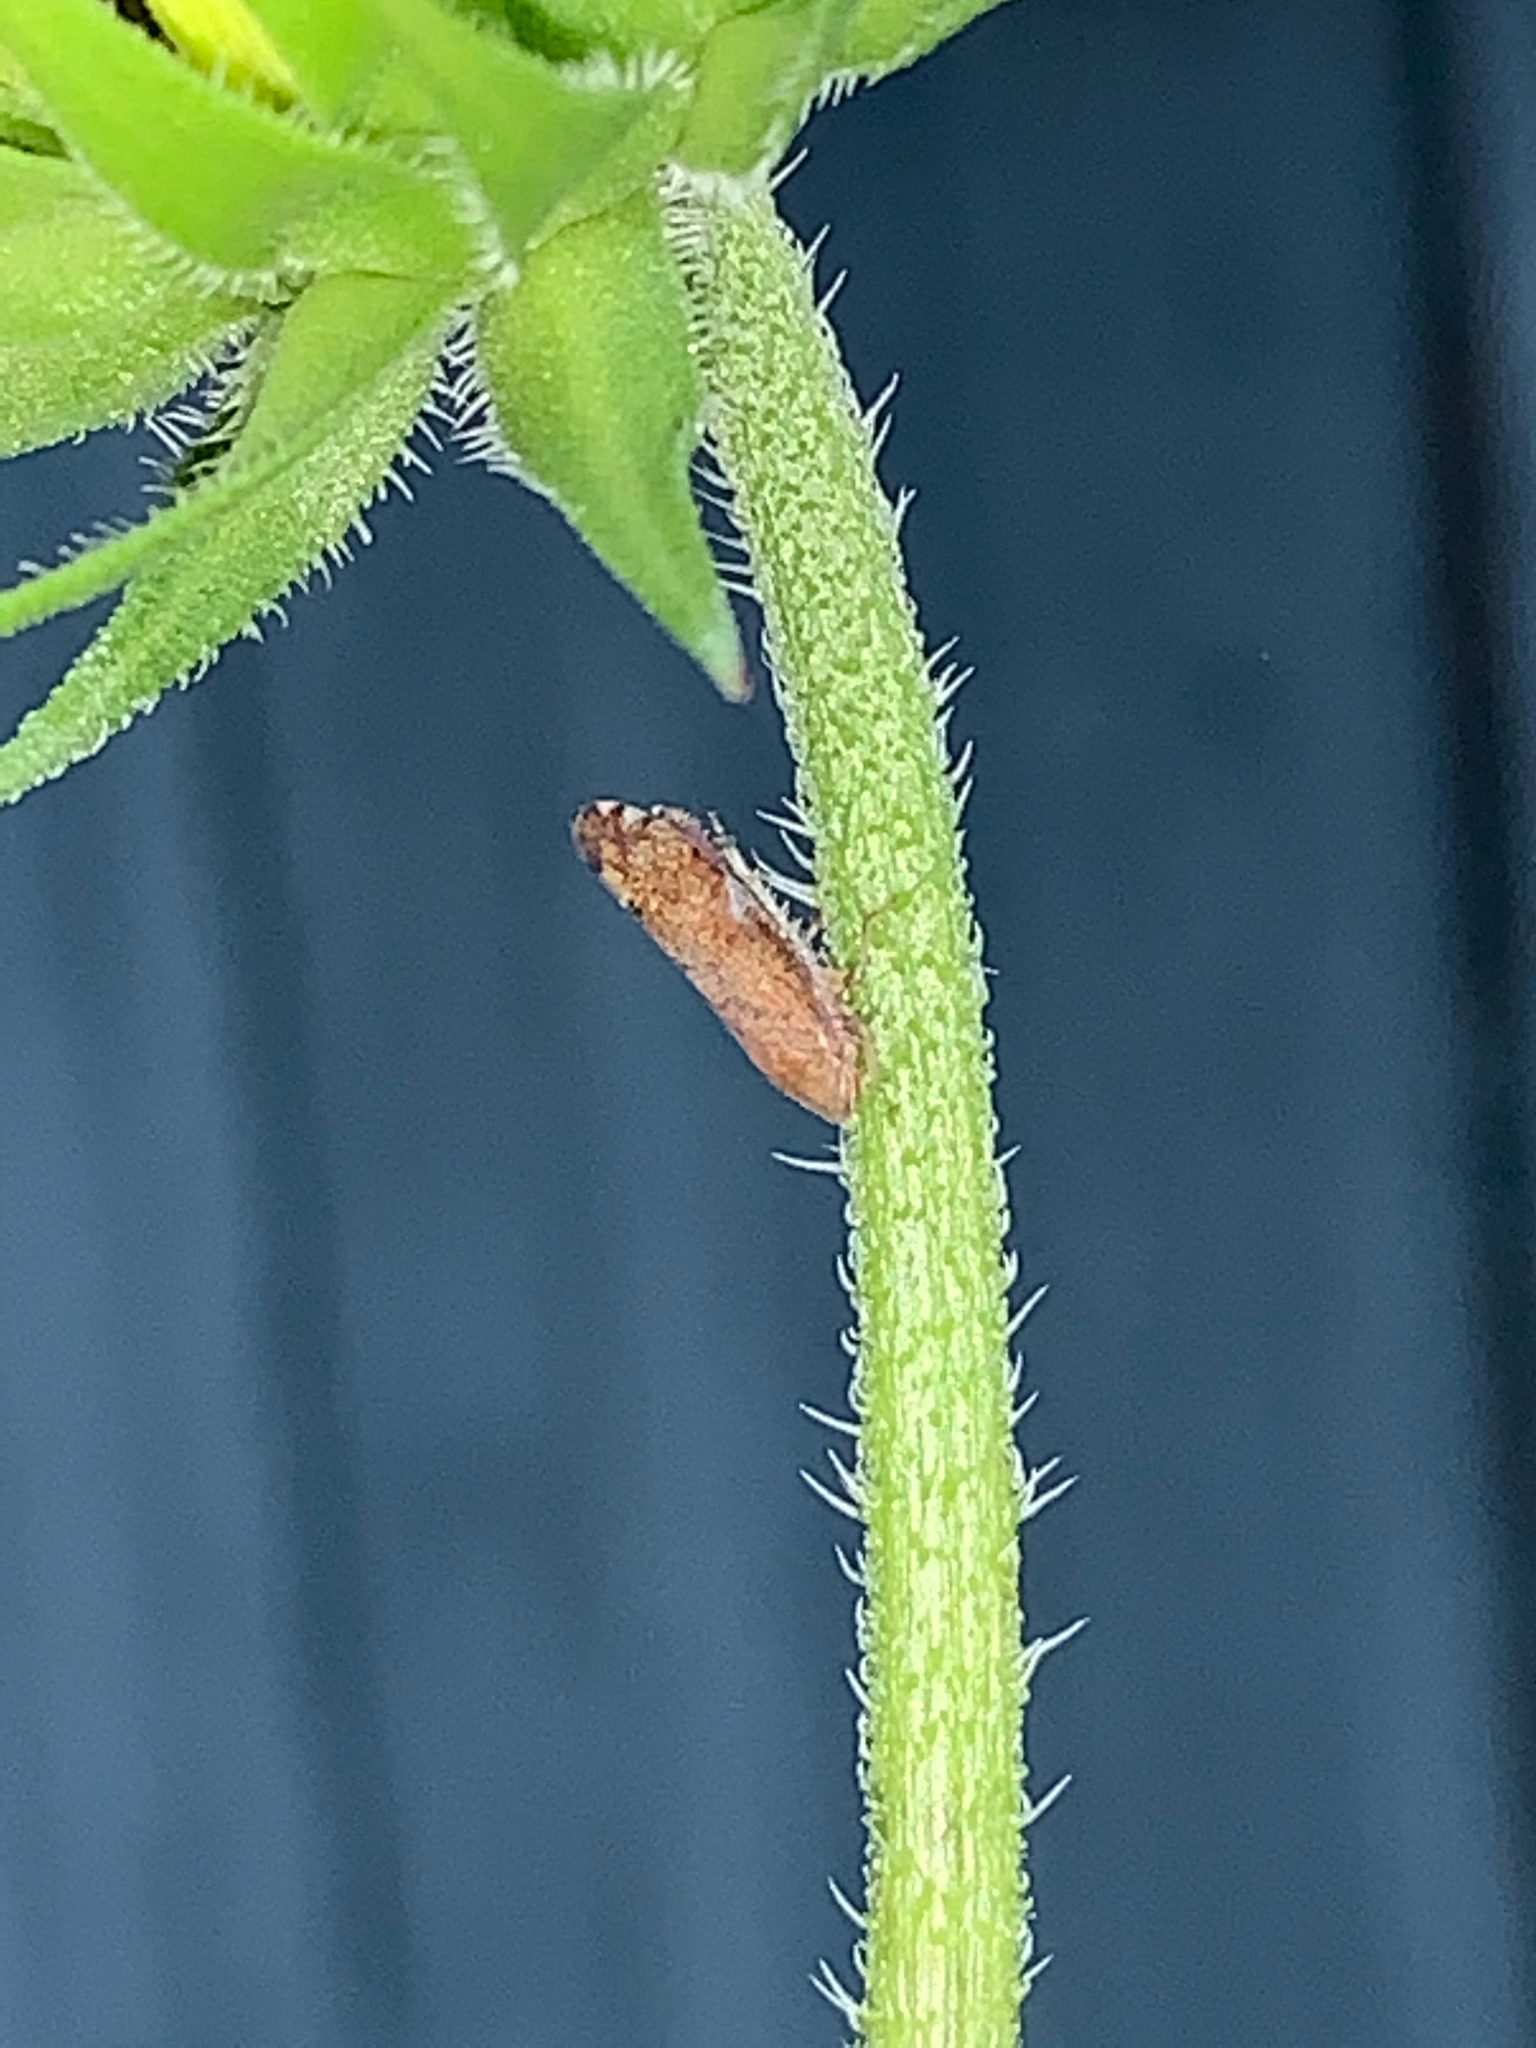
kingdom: Animalia
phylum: Arthropoda
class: Insecta
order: Hemiptera
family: Cicadellidae
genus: Fieberiella
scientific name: Fieberiella florii
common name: Flor’s leafhopper
